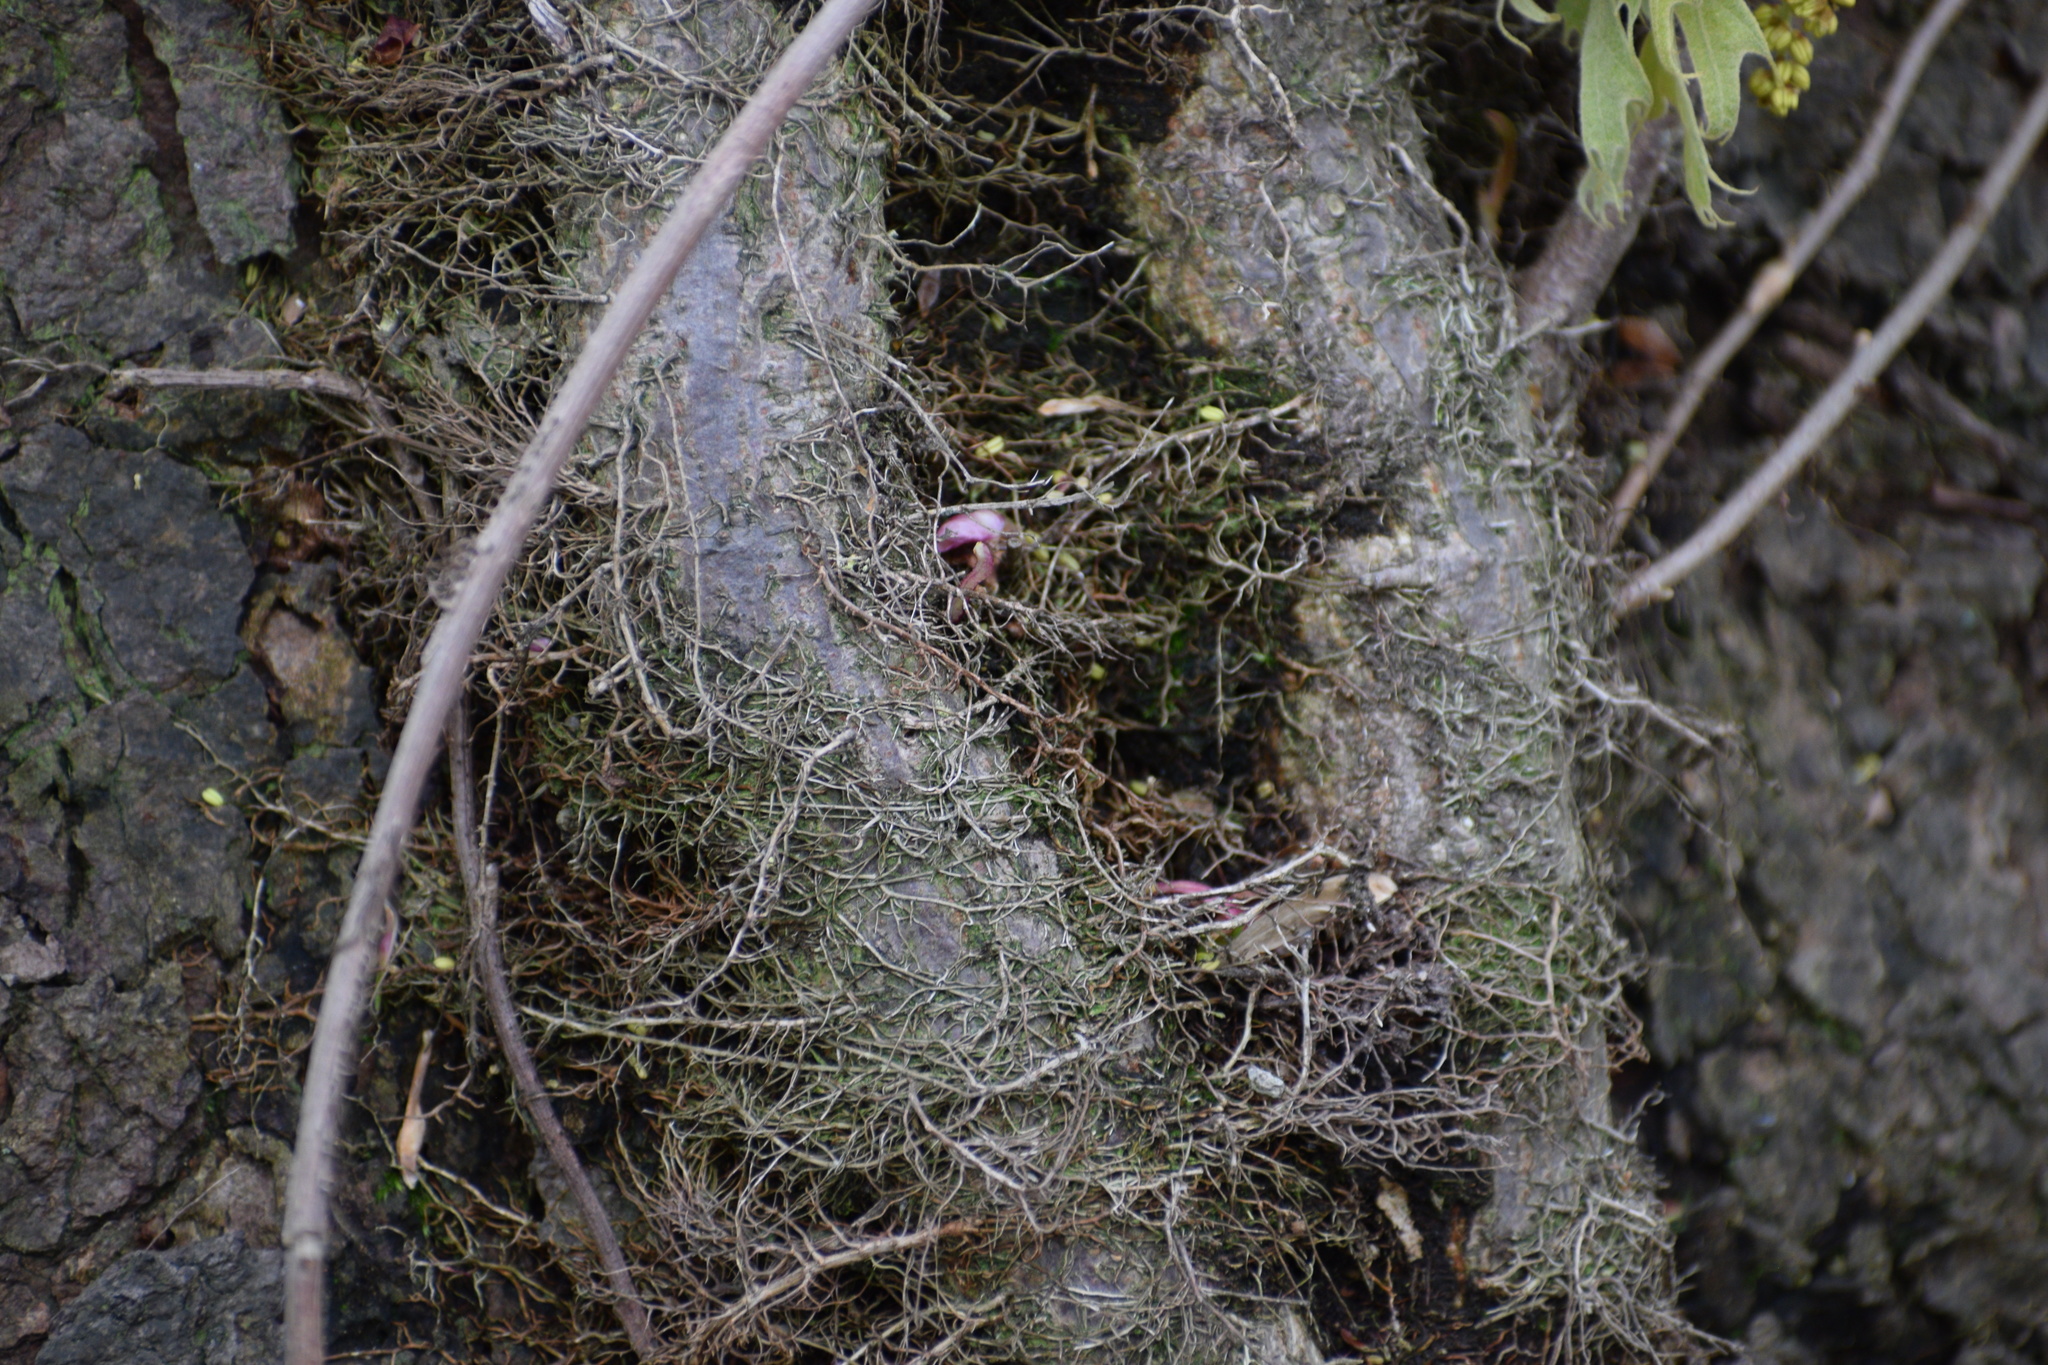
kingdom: Plantae
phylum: Tracheophyta
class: Magnoliopsida
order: Sapindales
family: Anacardiaceae
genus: Toxicodendron
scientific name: Toxicodendron radicans
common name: Poison ivy
